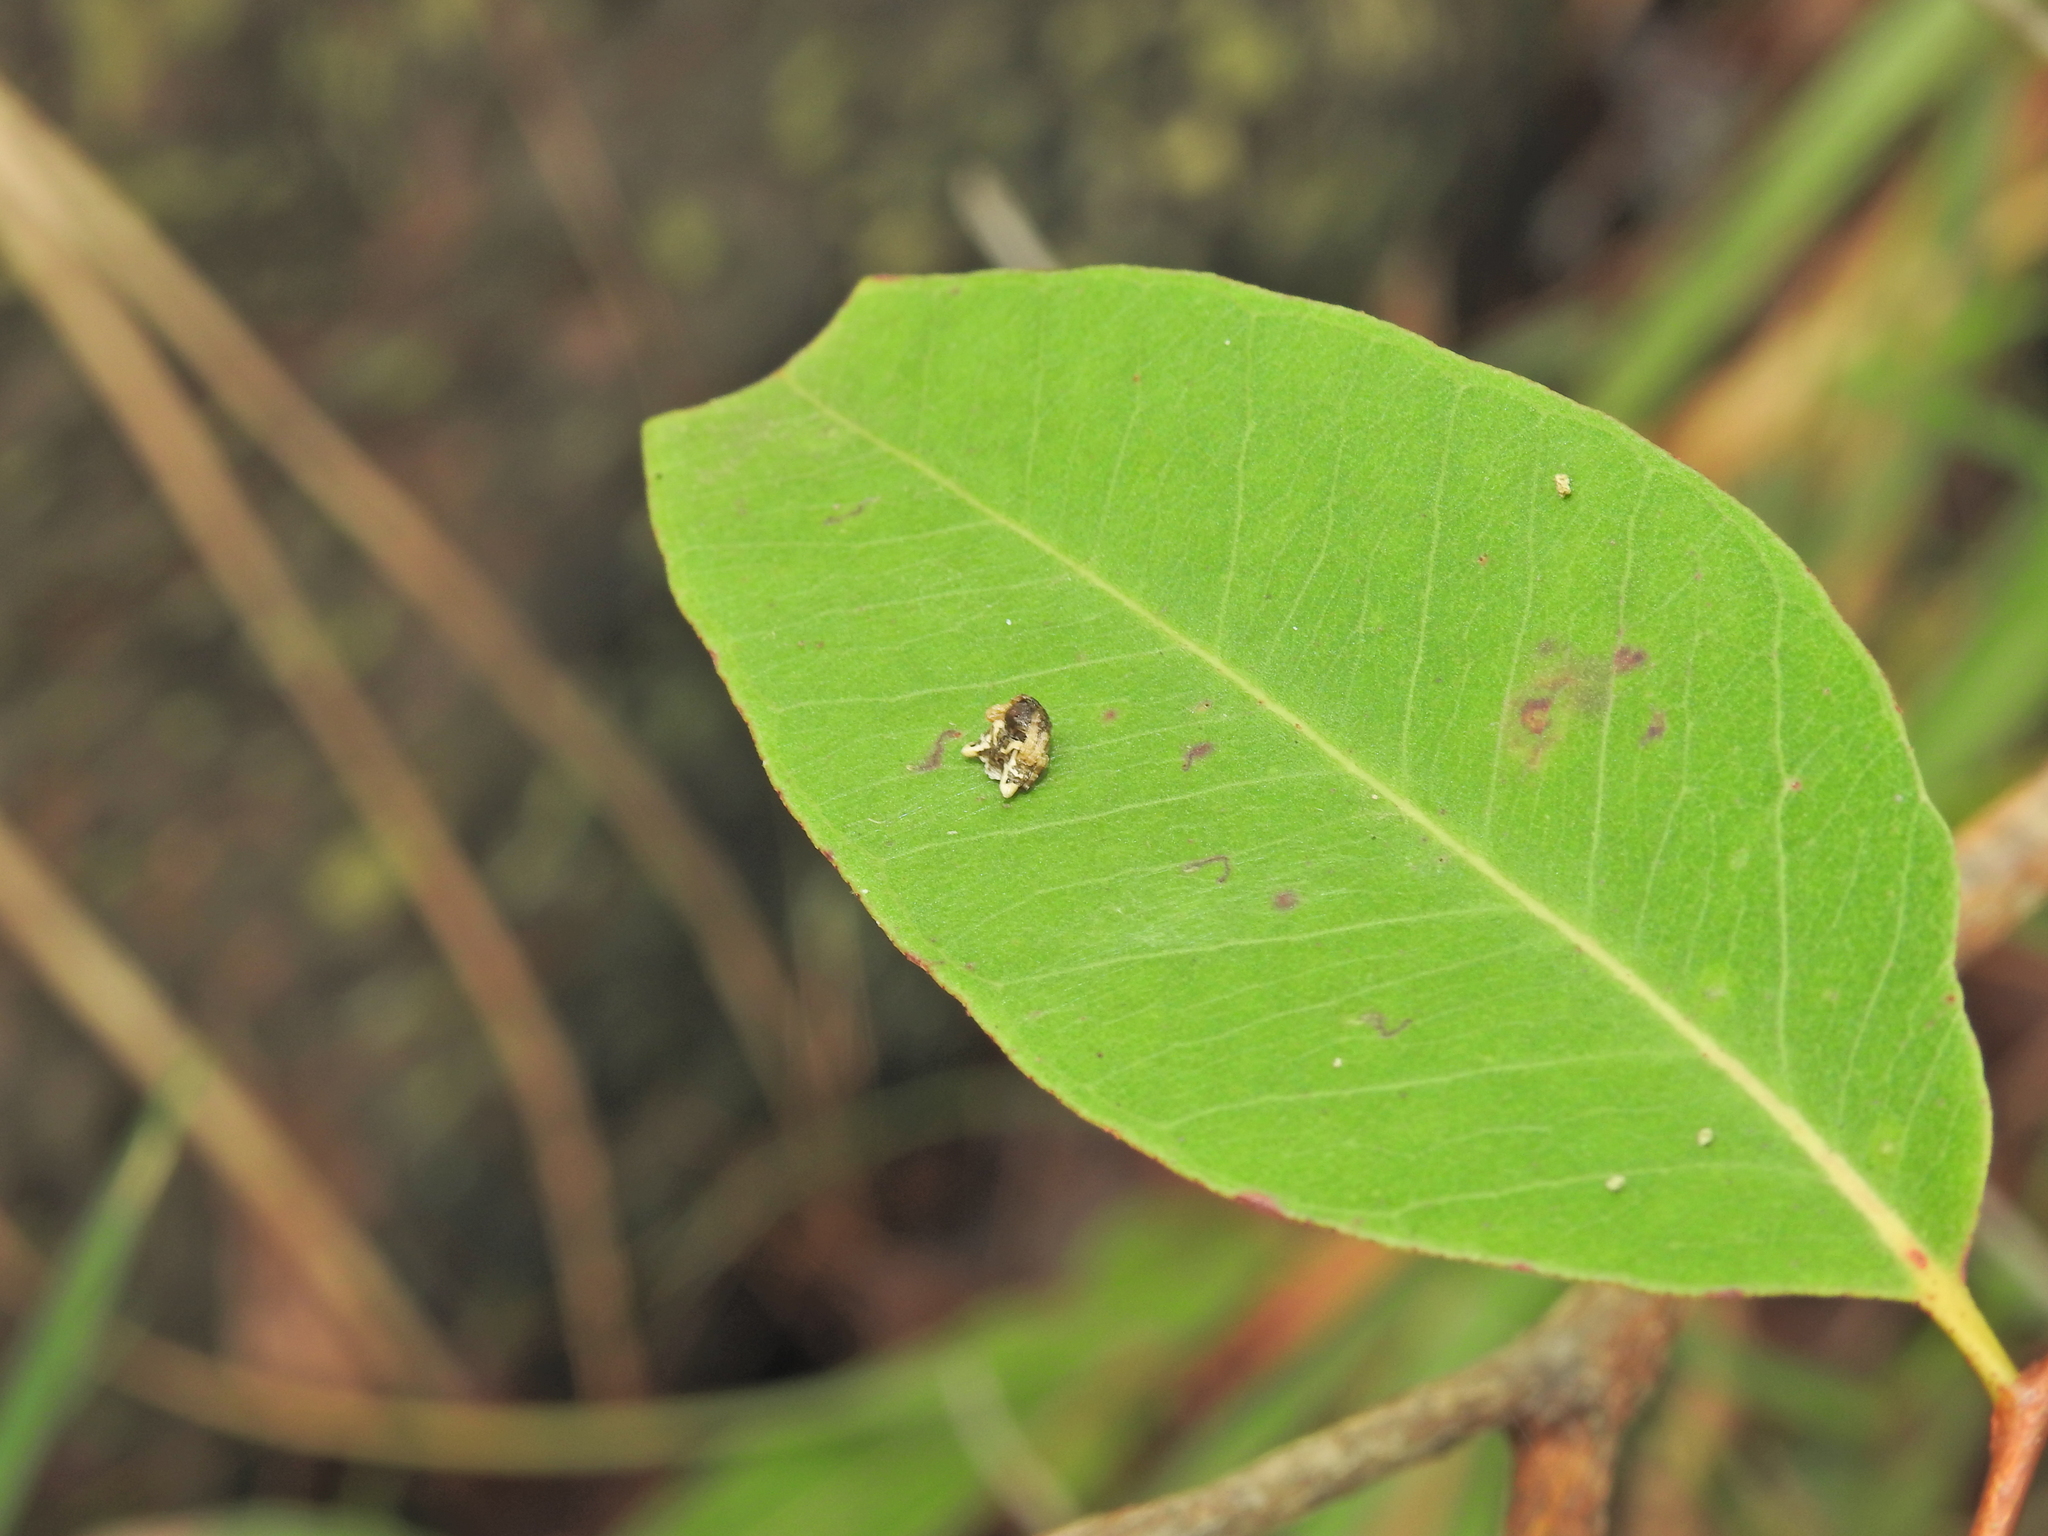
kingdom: Animalia
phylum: Arthropoda
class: Arachnida
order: Araneae
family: Arkyidae
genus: Arkys
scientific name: Arkys curtulus
